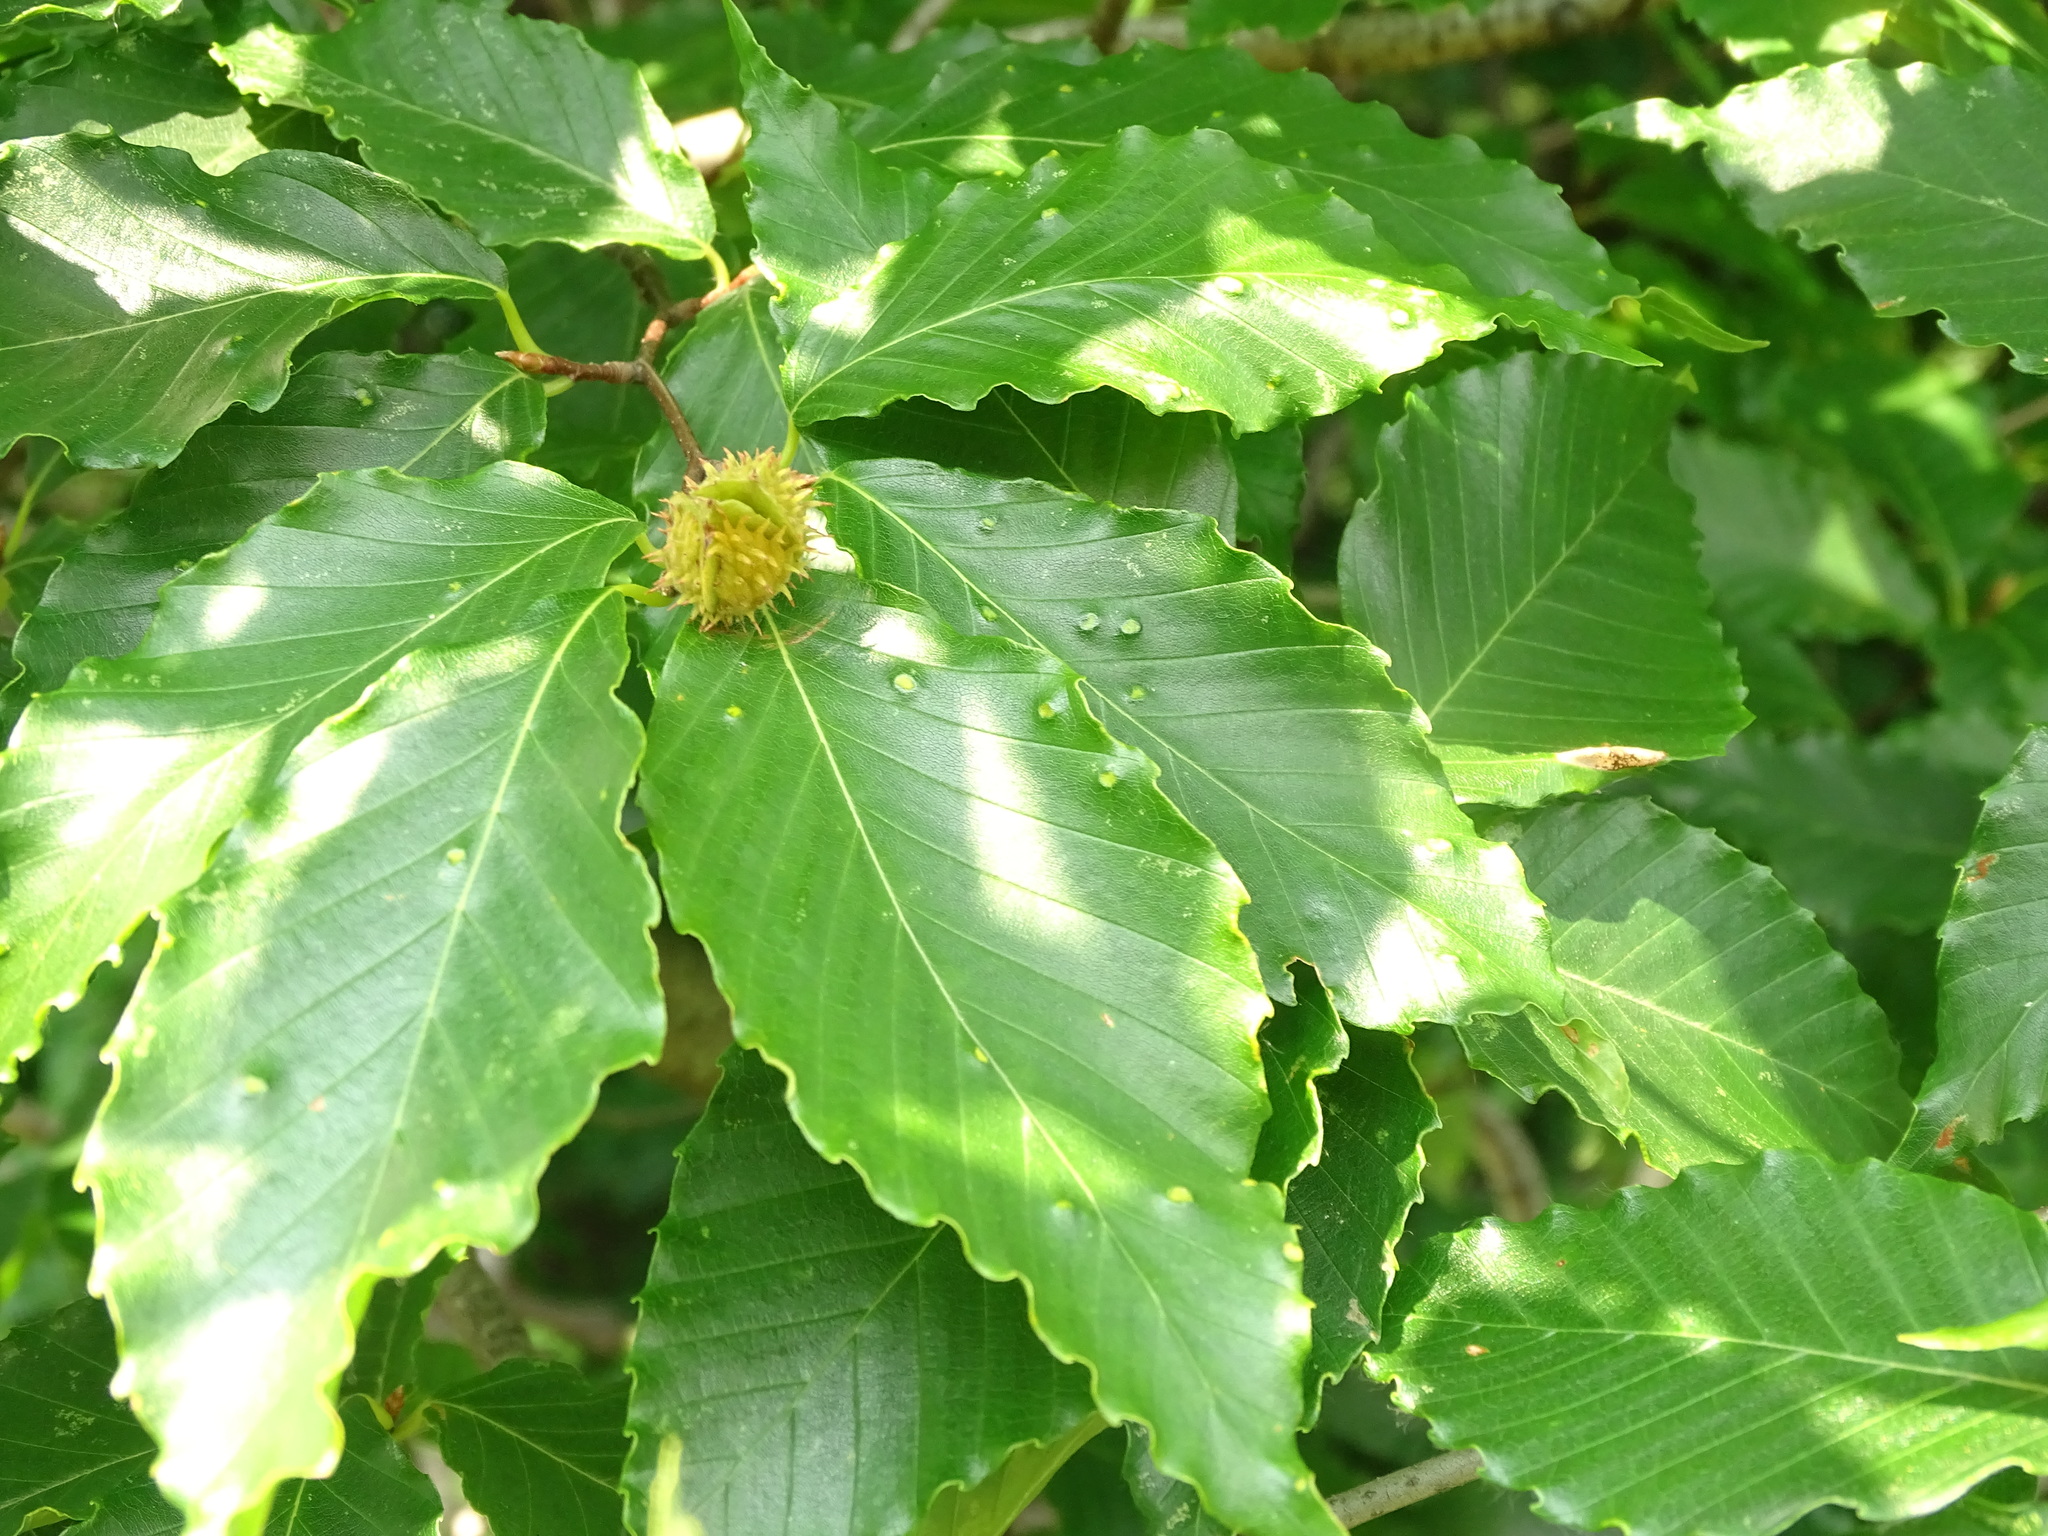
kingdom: Plantae
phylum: Tracheophyta
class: Magnoliopsida
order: Fagales
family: Fagaceae
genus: Fagus
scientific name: Fagus grandifolia
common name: American beech
